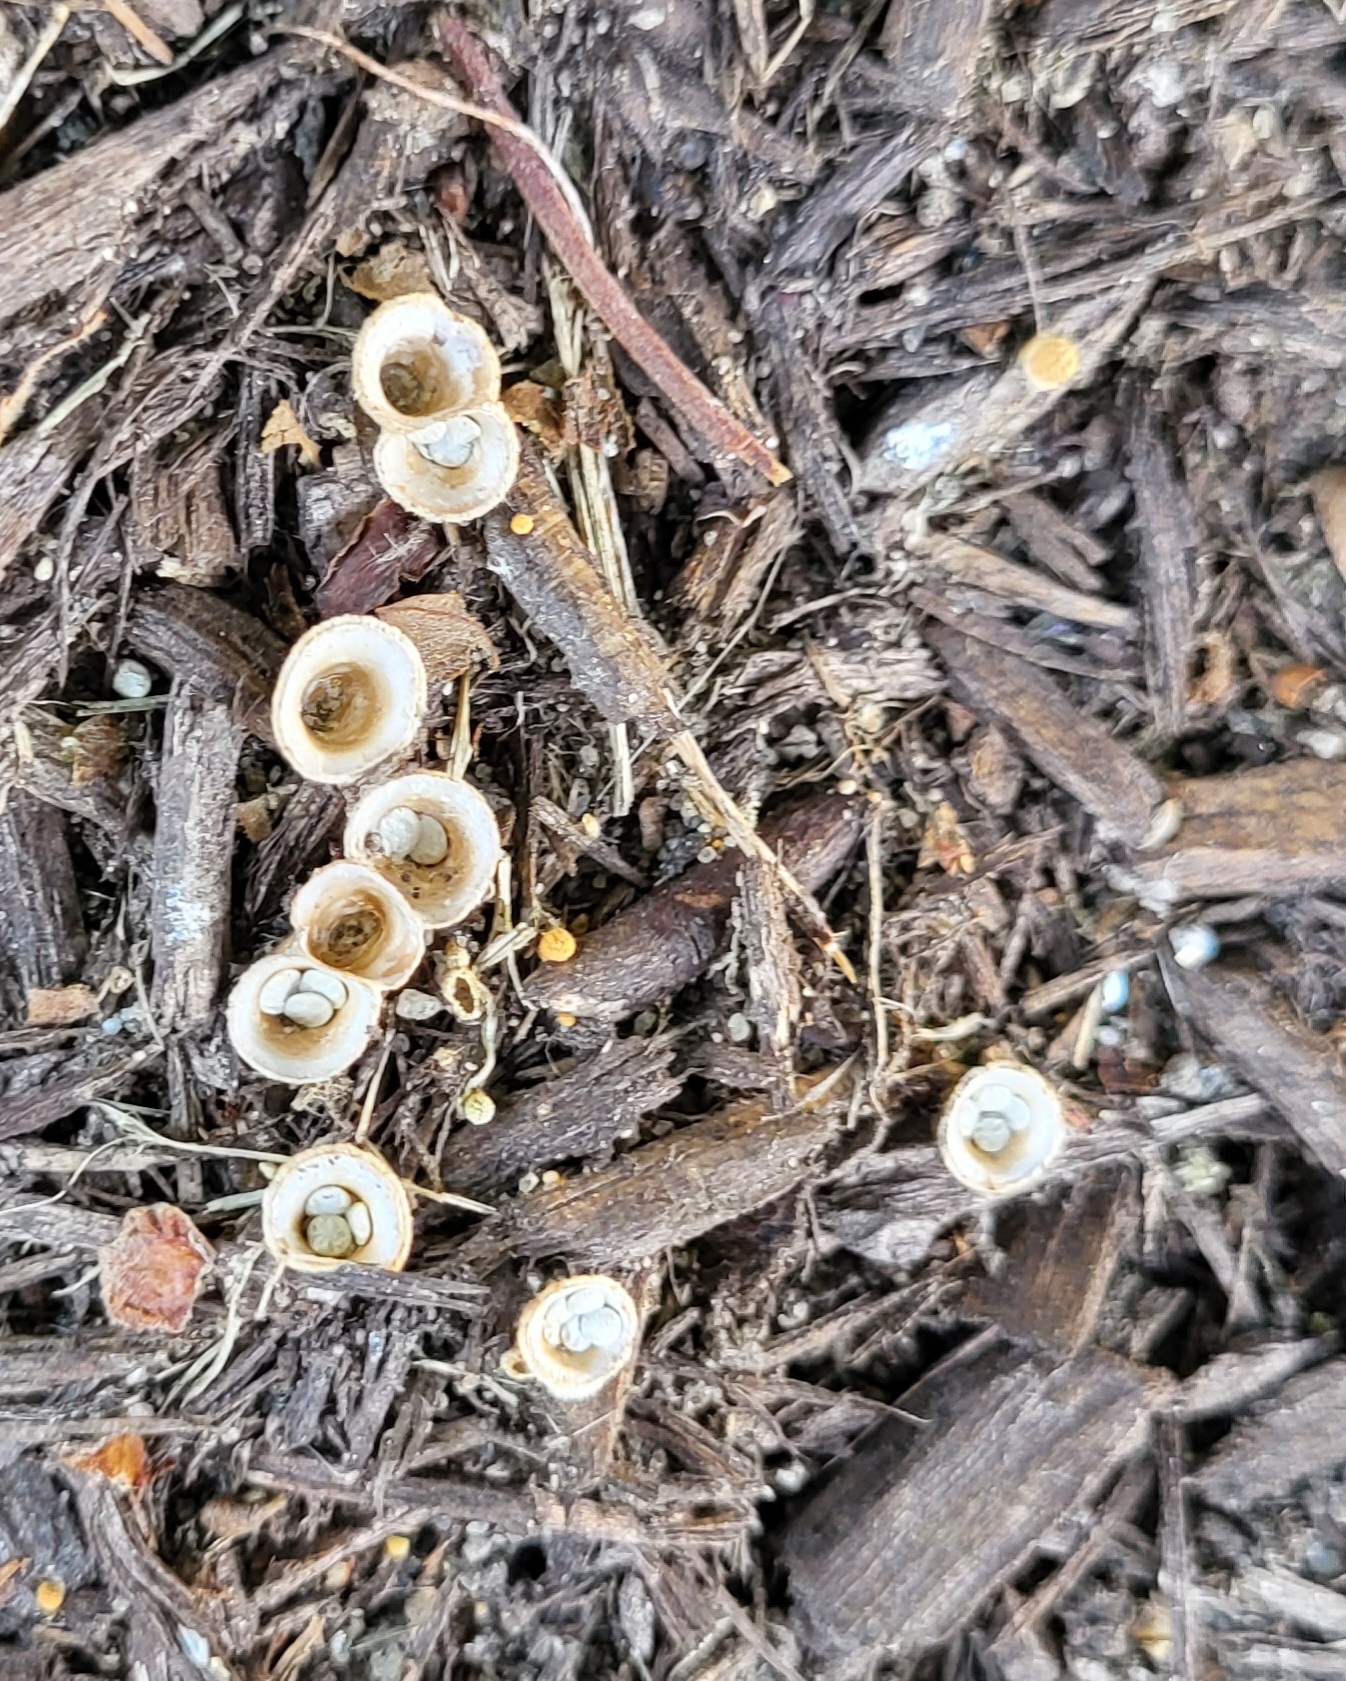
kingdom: Fungi
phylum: Basidiomycota
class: Agaricomycetes
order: Agaricales
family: Nidulariaceae
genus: Crucibulum
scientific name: Crucibulum laeve
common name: Common bird's nest
